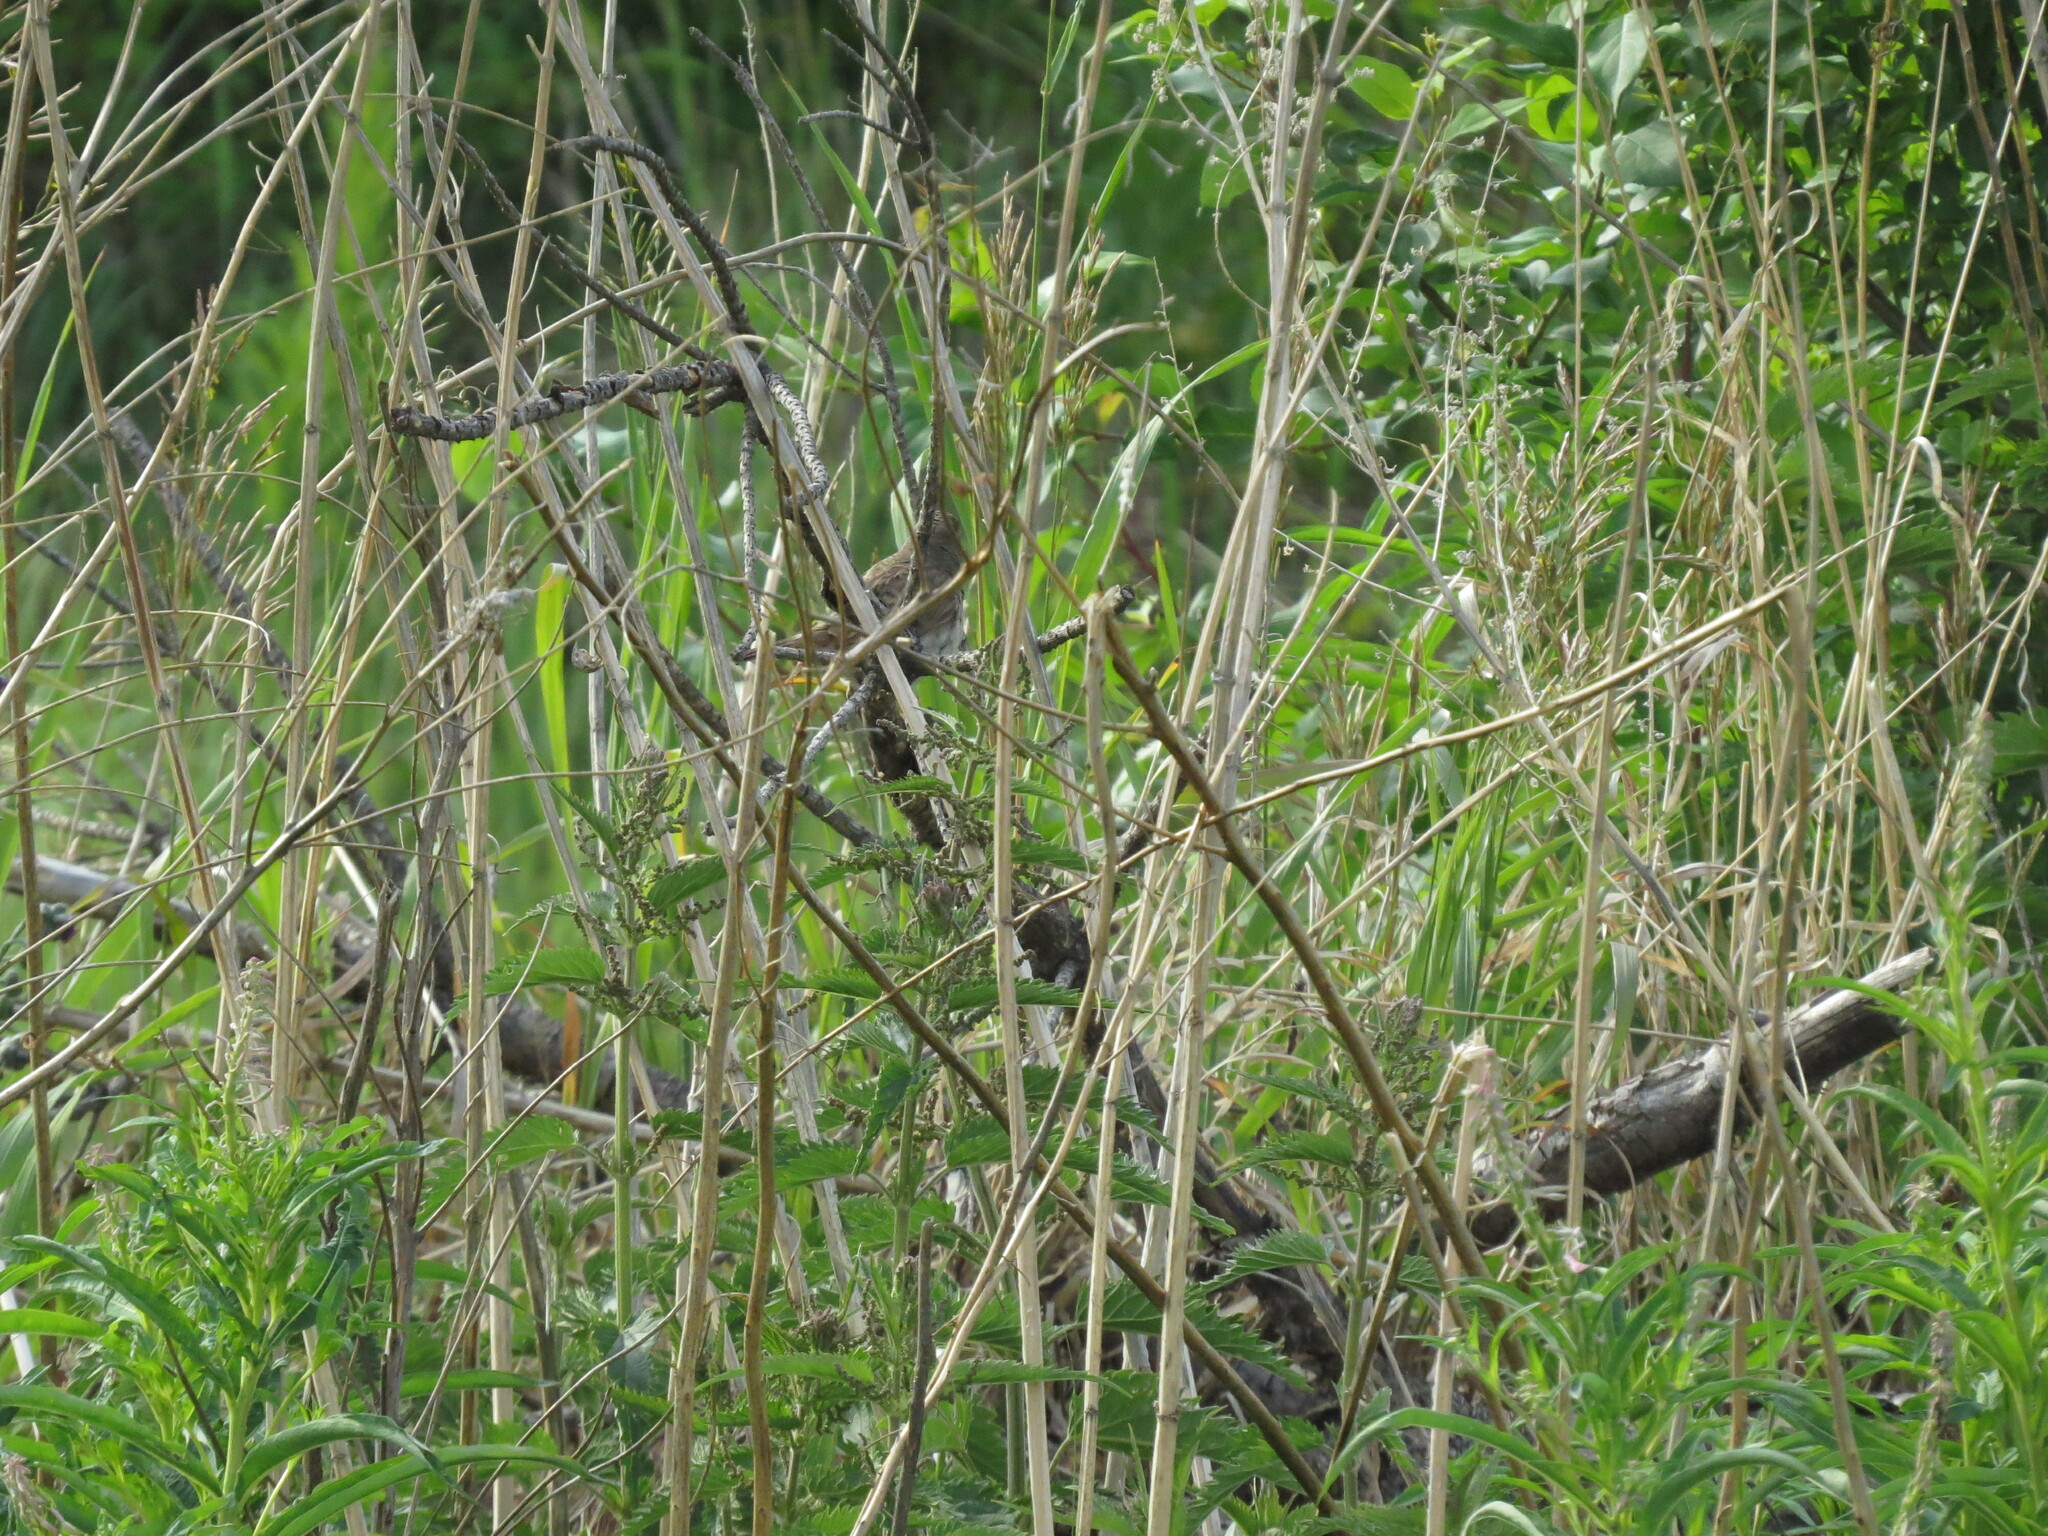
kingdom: Animalia
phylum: Chordata
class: Aves
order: Passeriformes
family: Muscicapidae
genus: Luscinia
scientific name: Luscinia svecica
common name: Bluethroat
